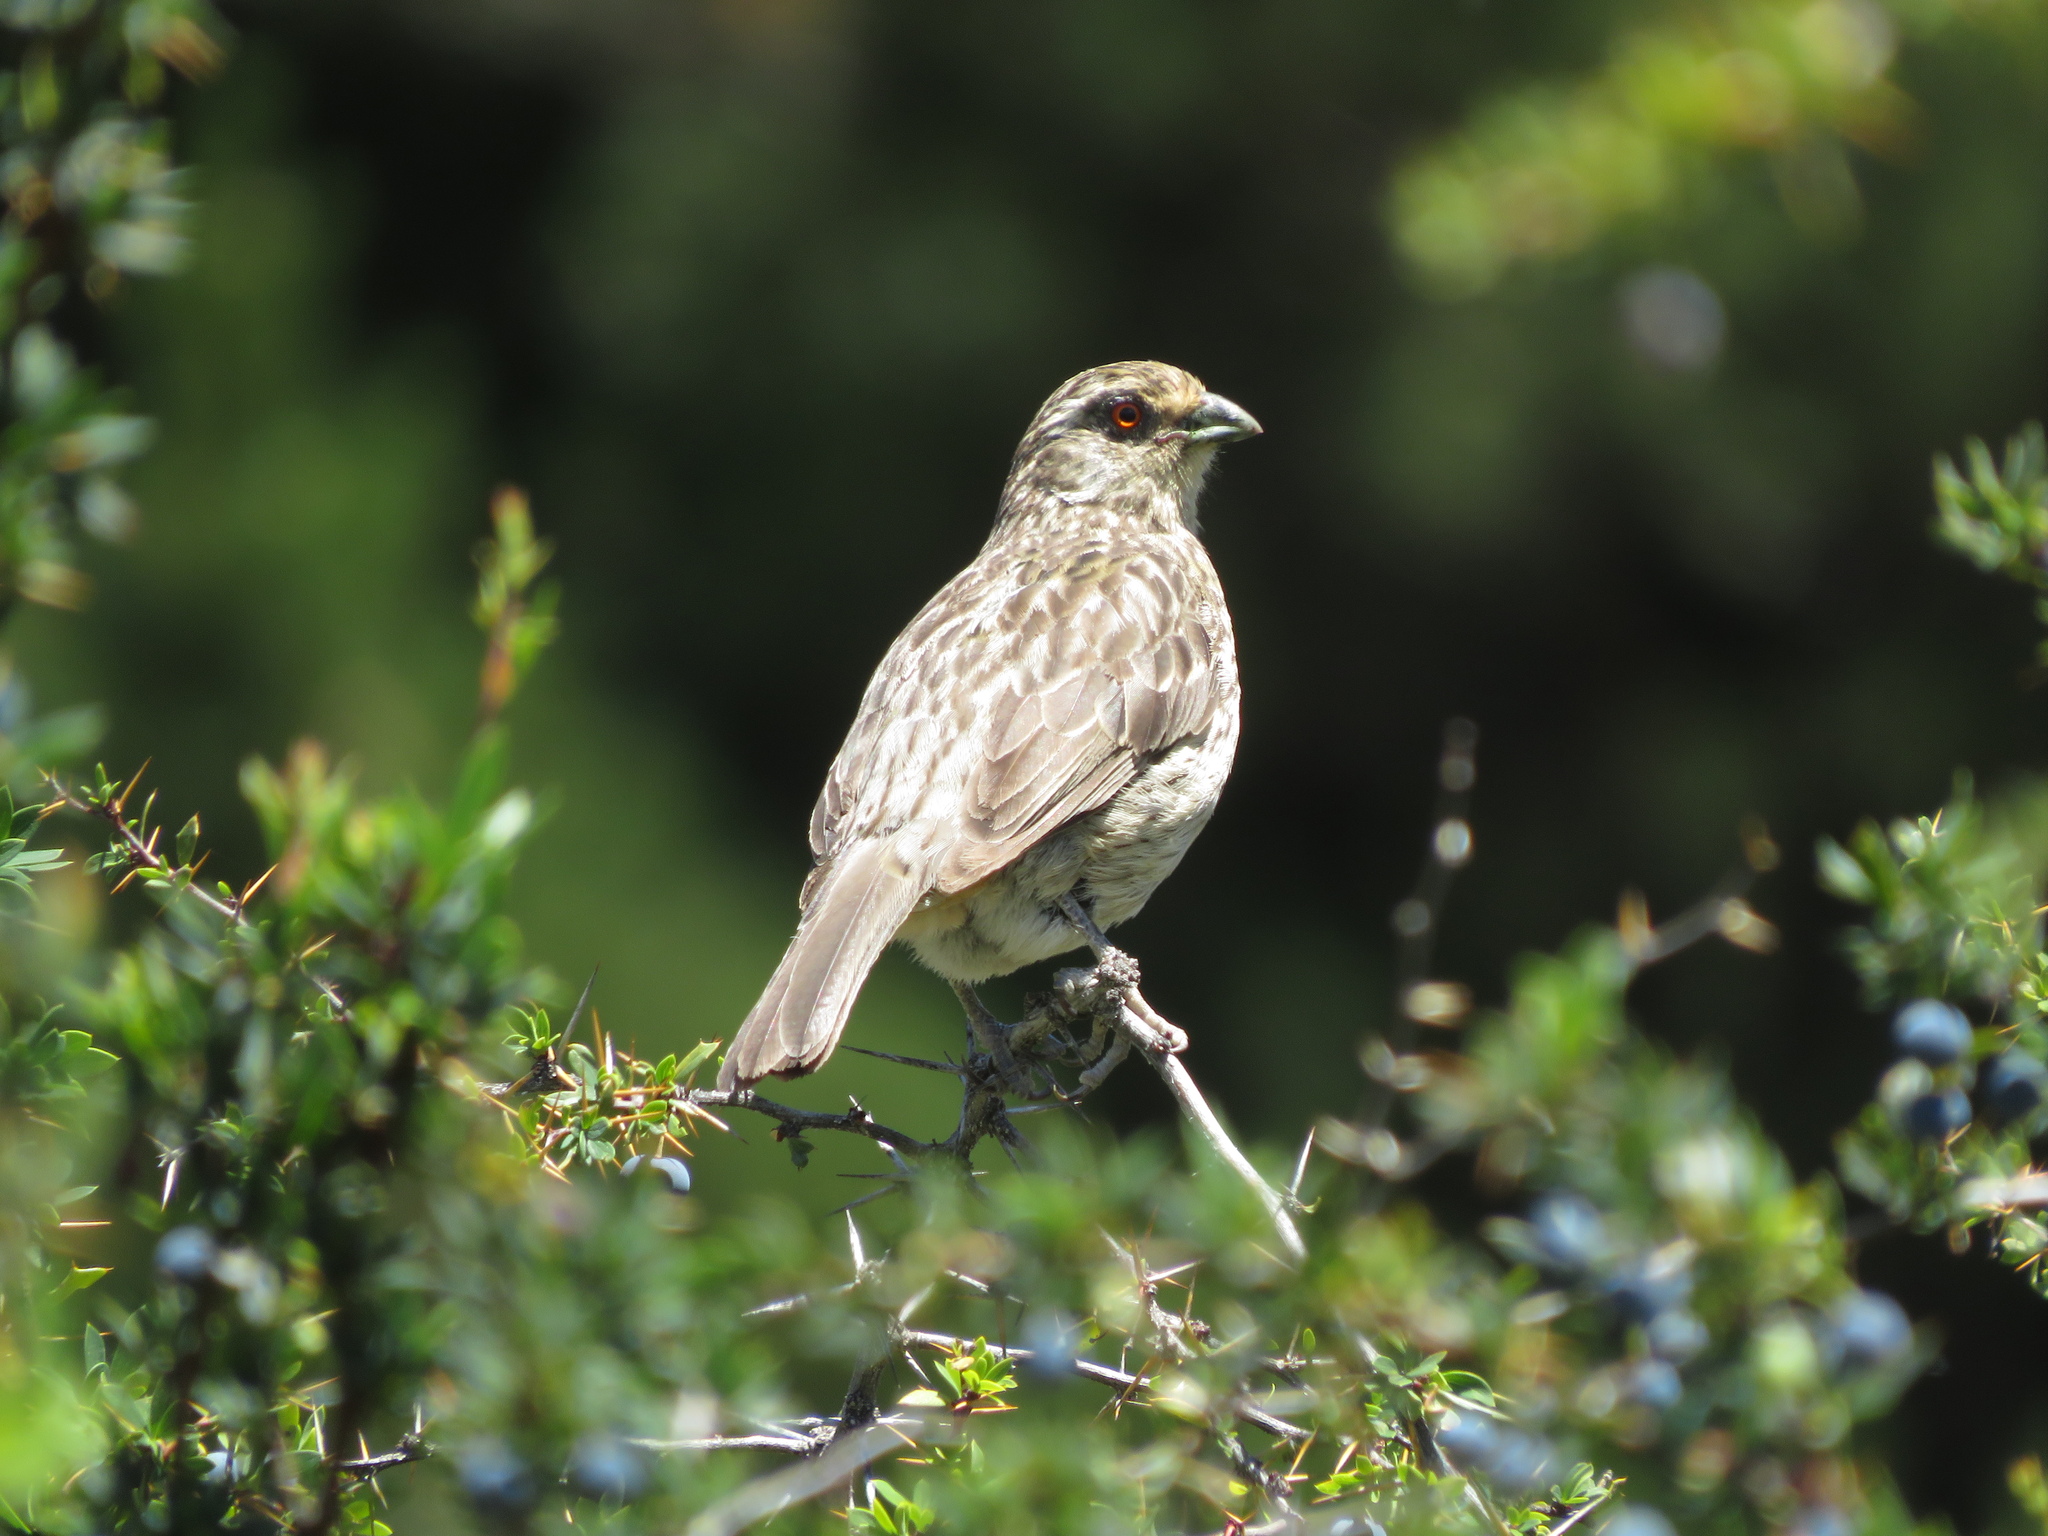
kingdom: Animalia
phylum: Chordata
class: Aves
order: Passeriformes
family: Cotingidae
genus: Phytotoma
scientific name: Phytotoma rara
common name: Rufous-tailed plantcutter
